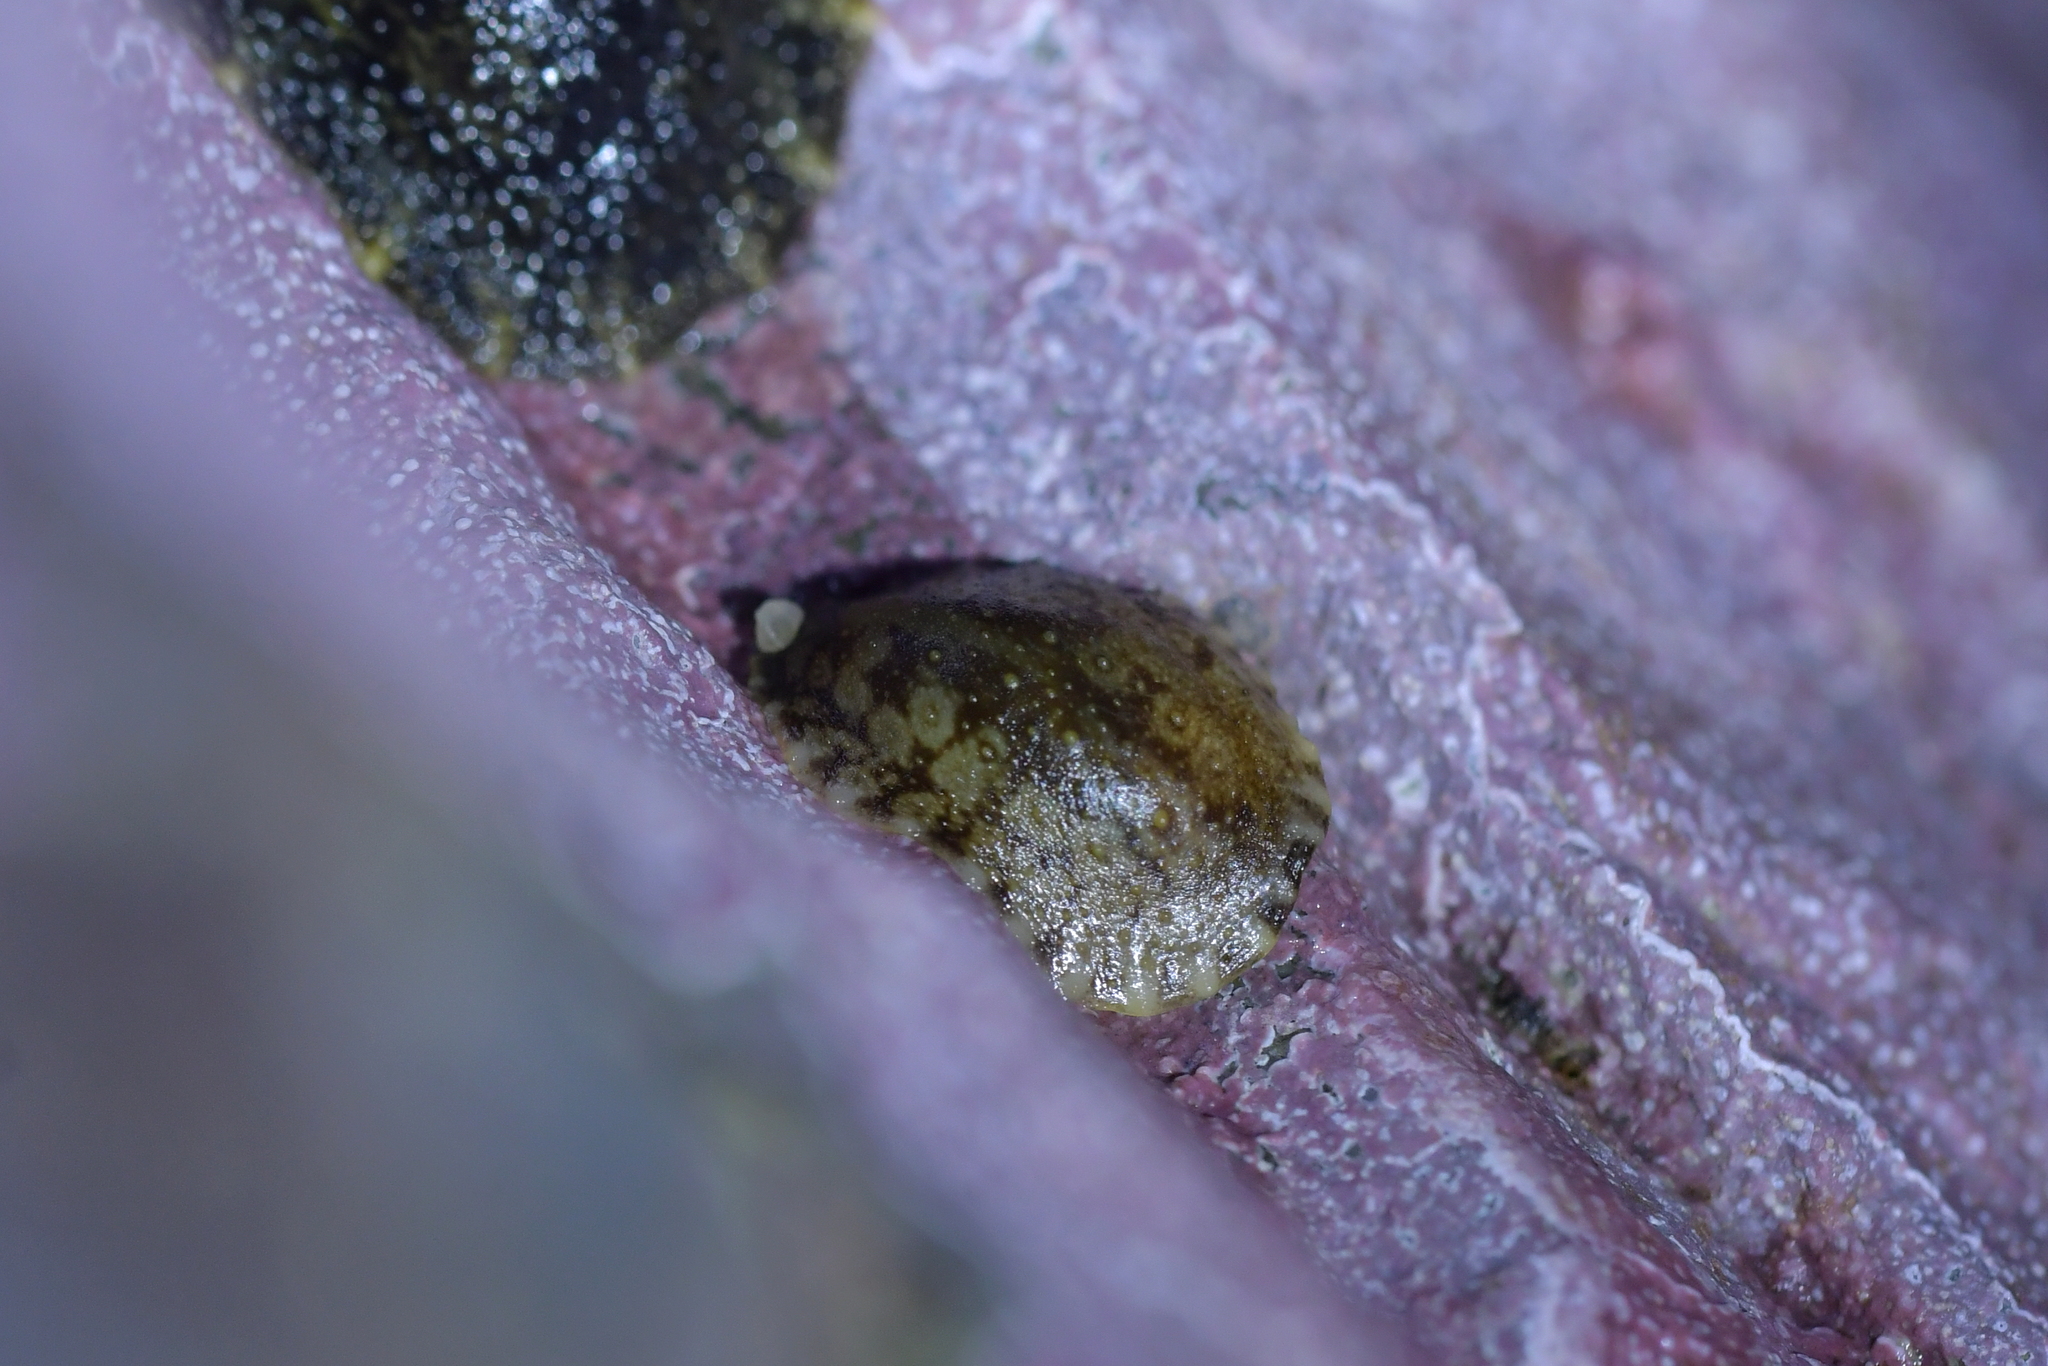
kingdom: Animalia
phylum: Mollusca
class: Gastropoda
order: Systellommatophora
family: Onchidiidae
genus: Onchidella
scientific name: Onchidella nigricans
